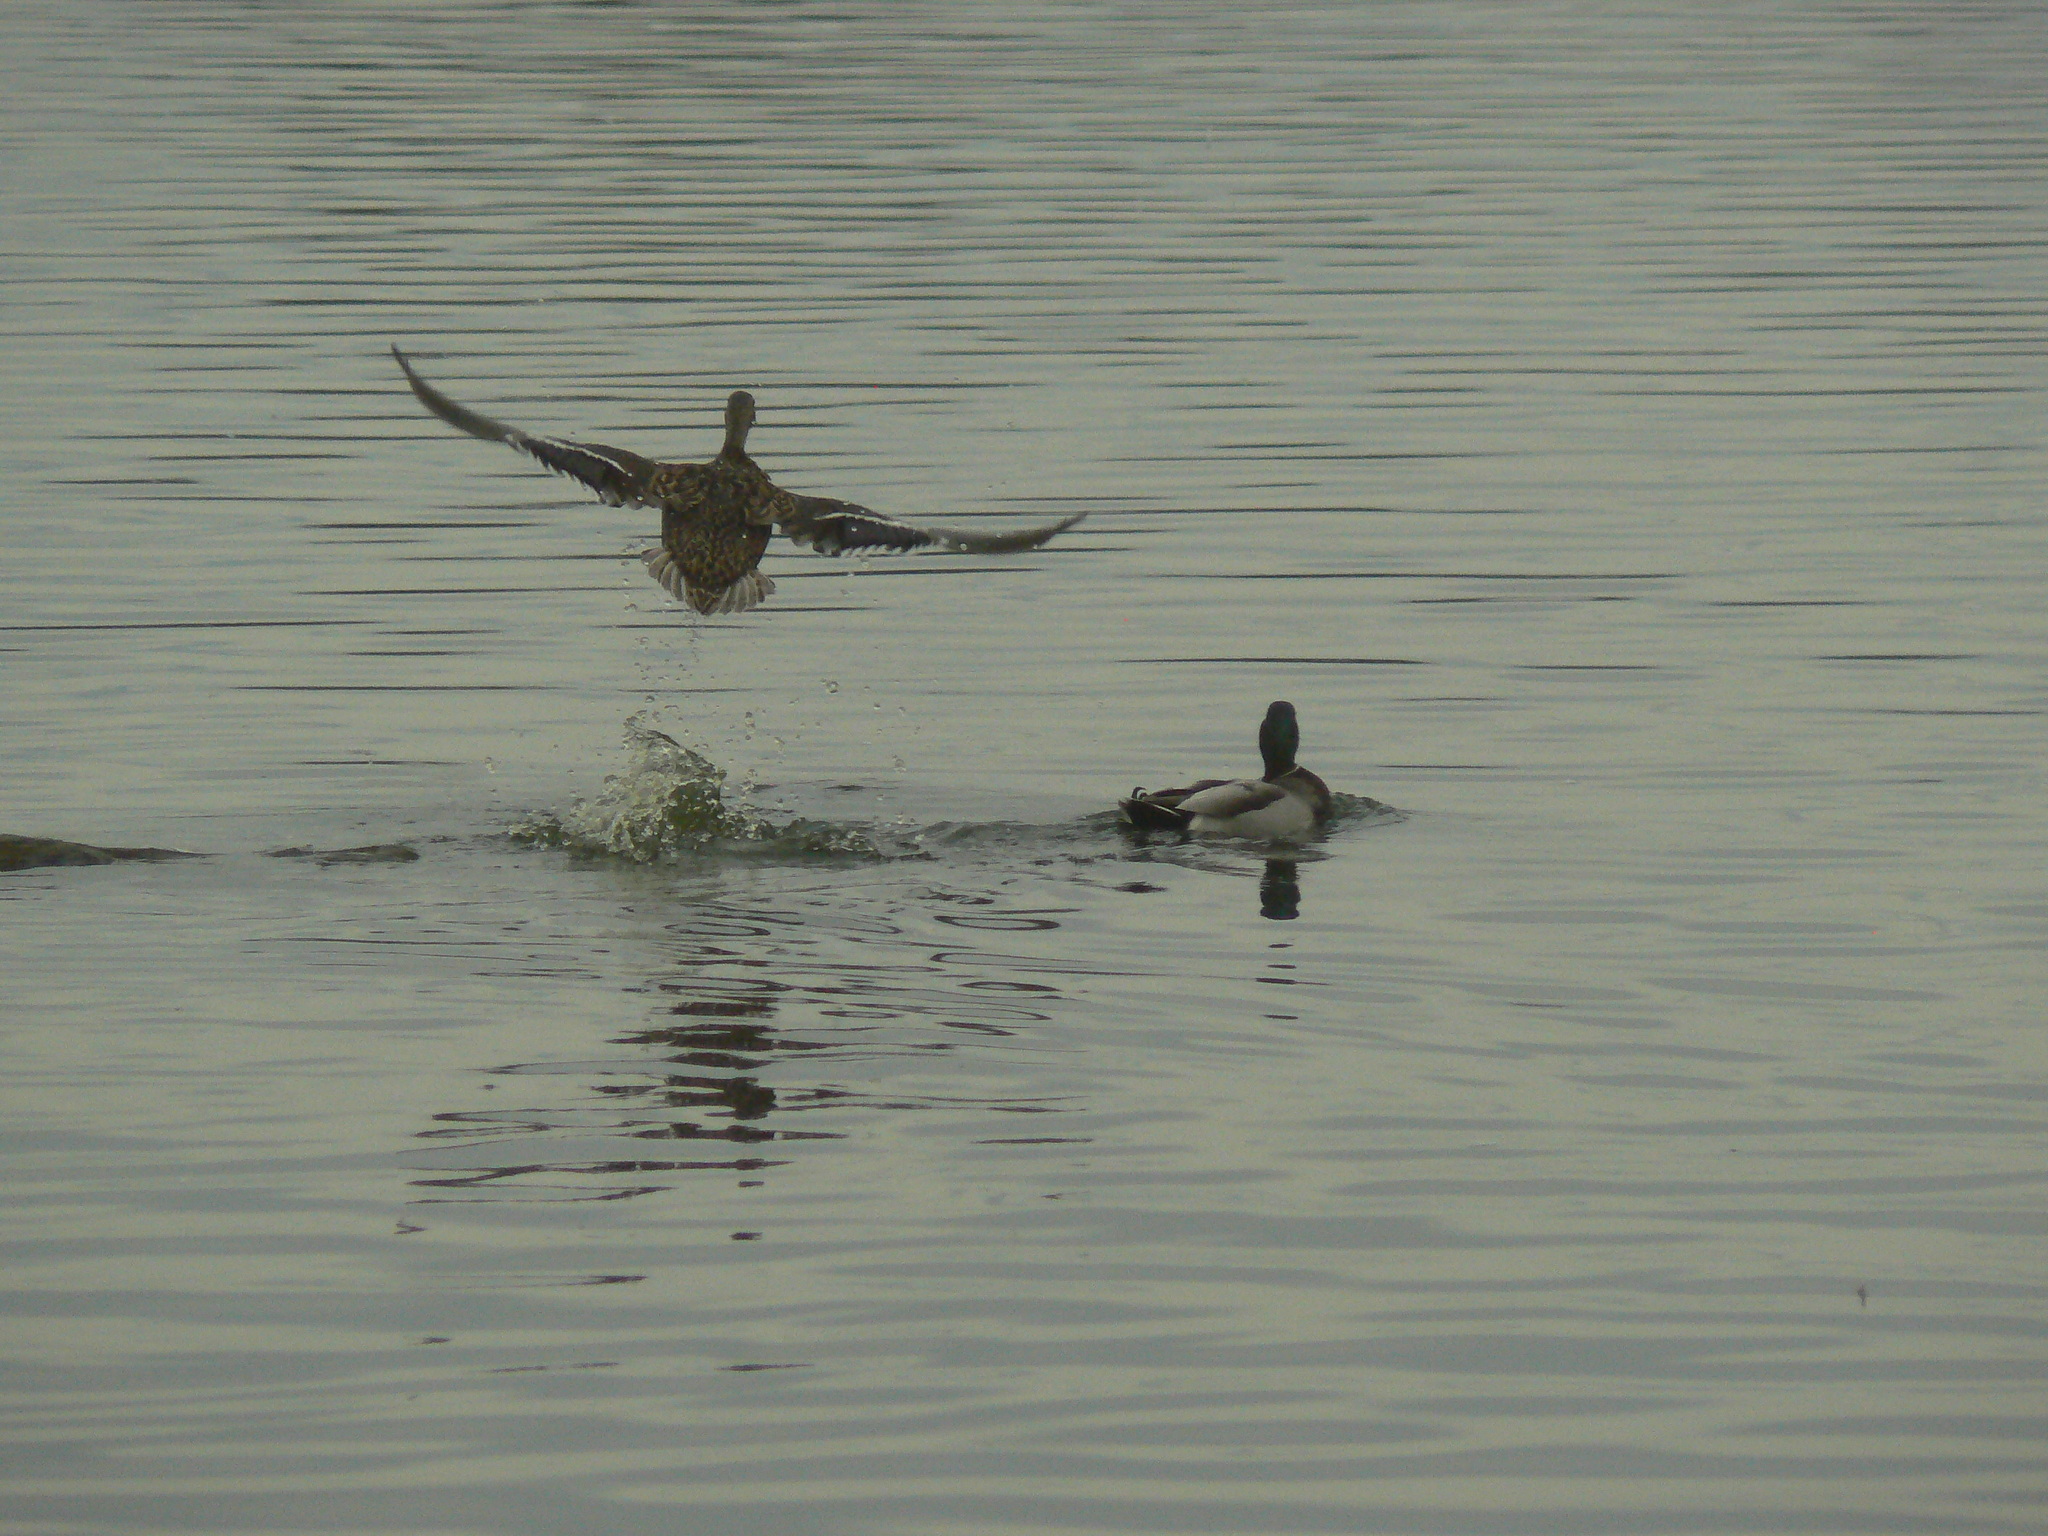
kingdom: Animalia
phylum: Chordata
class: Aves
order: Anseriformes
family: Anatidae
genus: Anas
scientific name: Anas platyrhynchos
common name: Mallard
